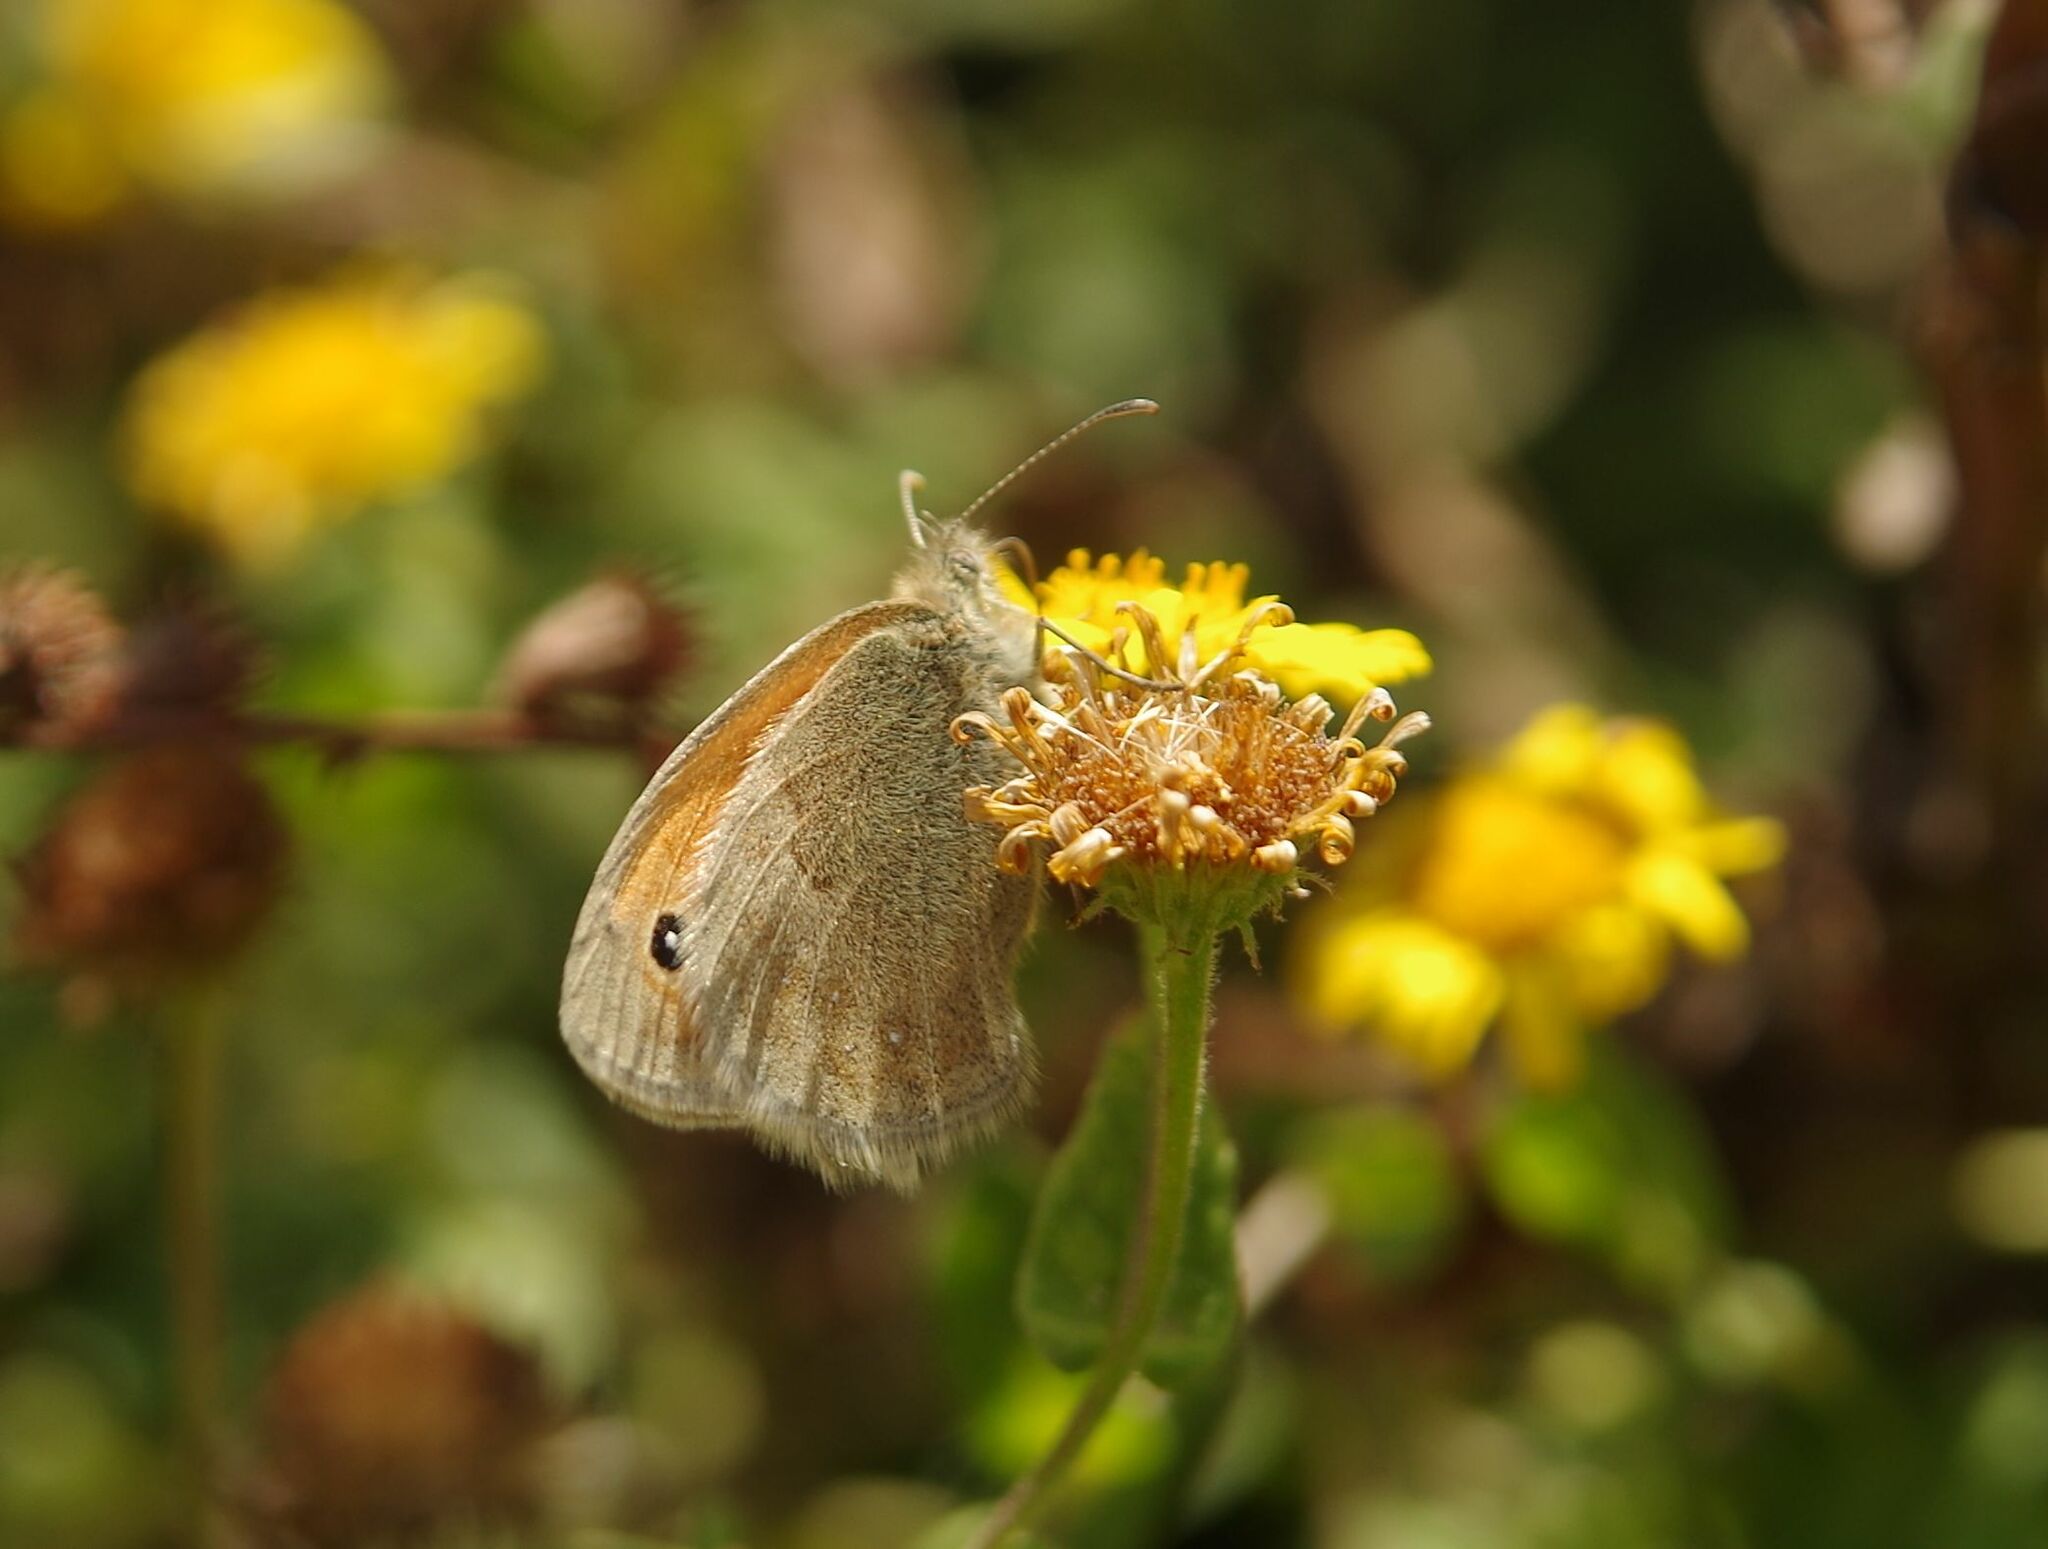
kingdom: Animalia
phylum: Arthropoda
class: Insecta
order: Lepidoptera
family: Nymphalidae
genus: Coenonympha
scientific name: Coenonympha pamphilus
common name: Small heath
